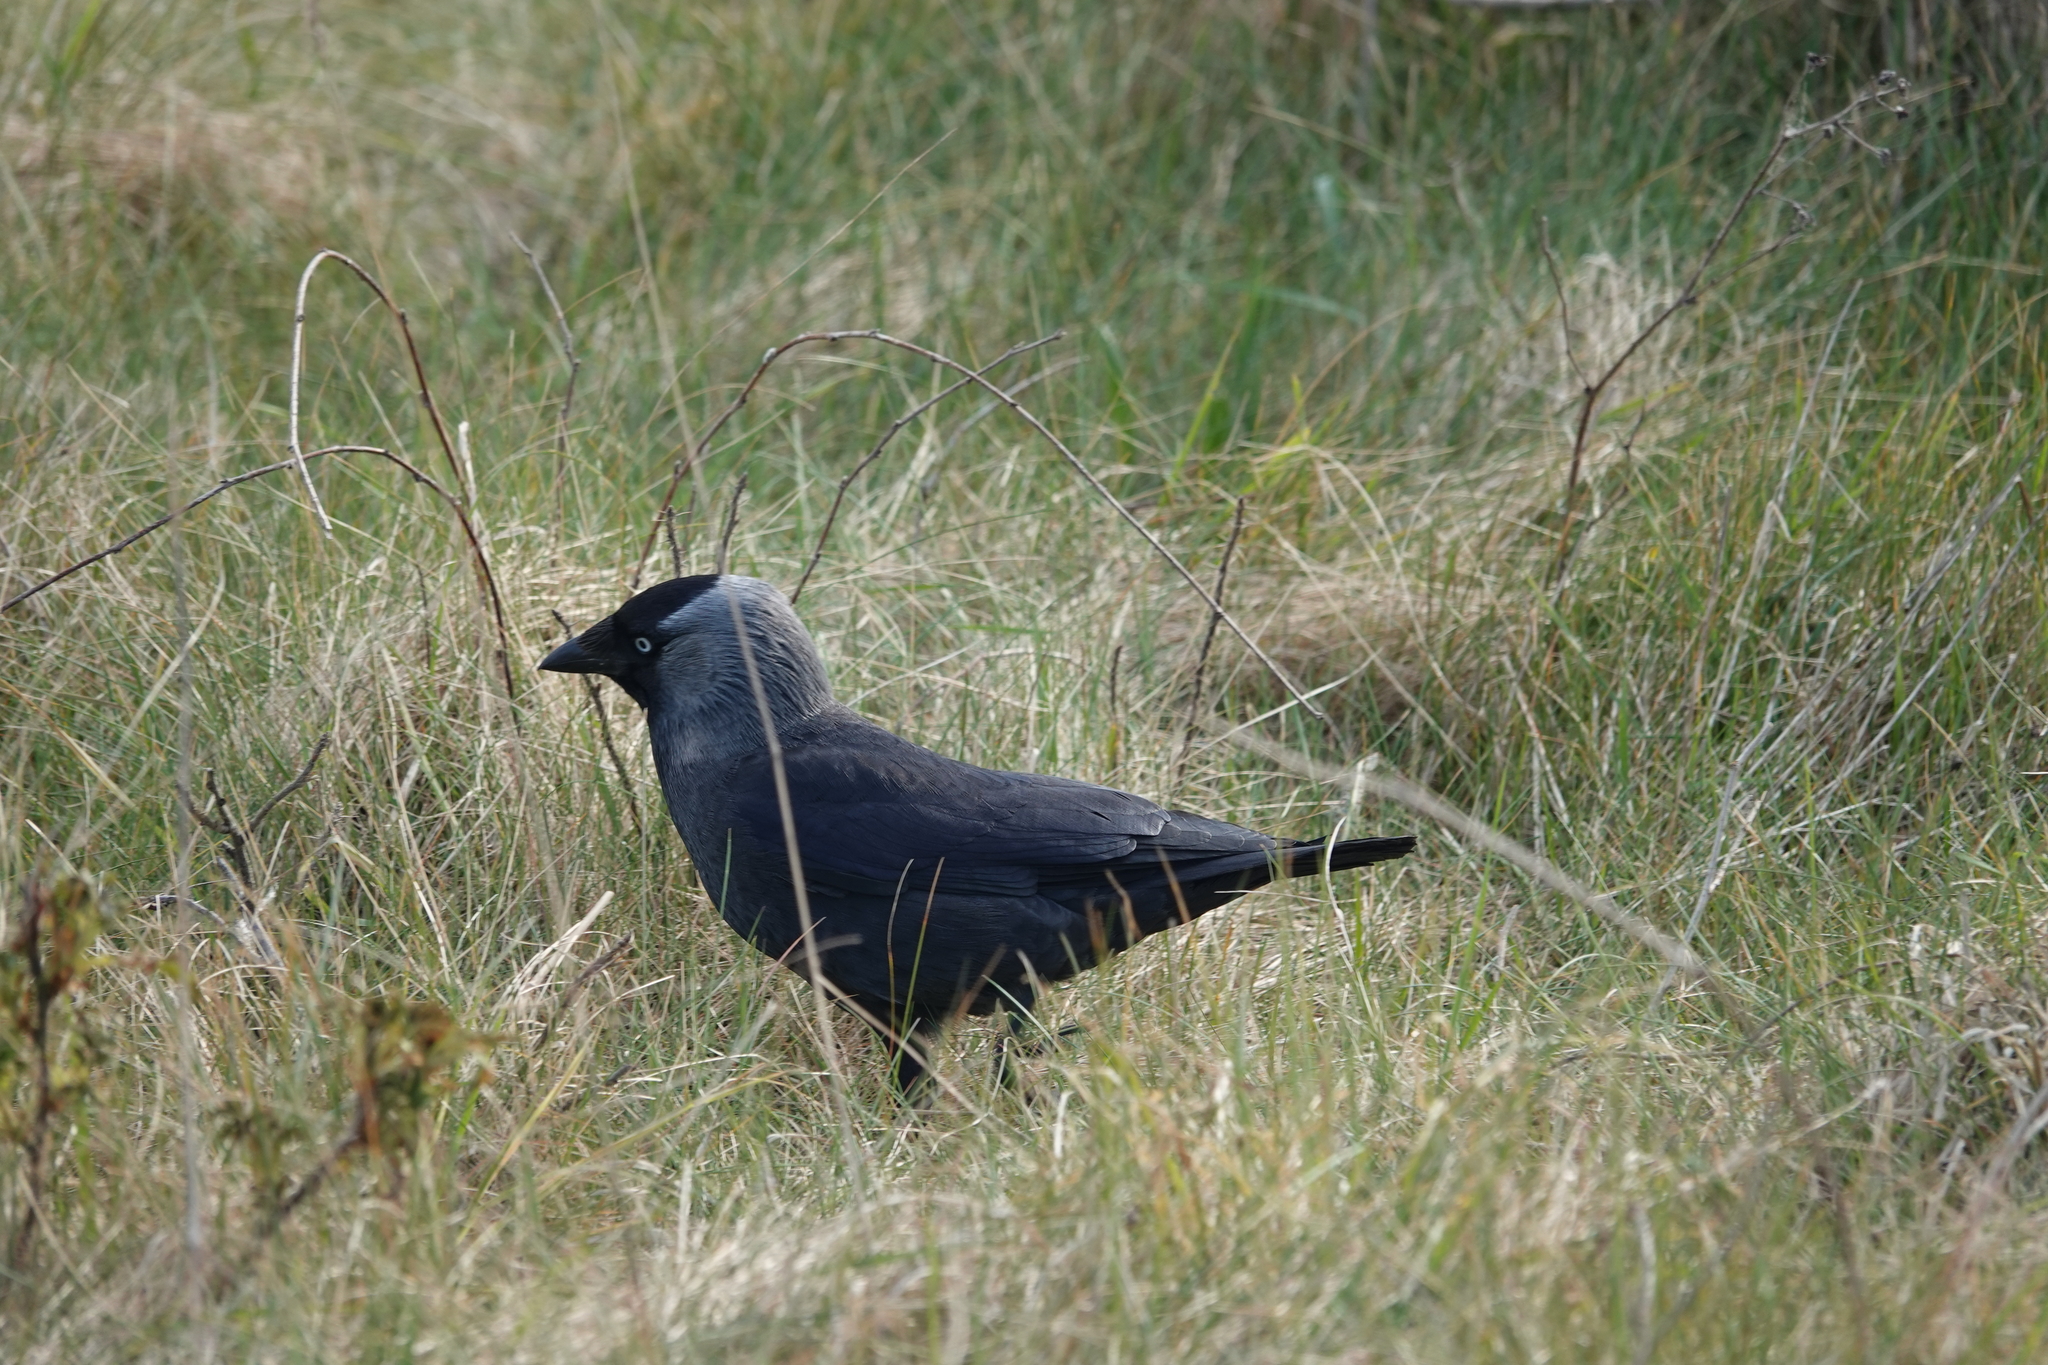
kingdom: Animalia
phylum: Chordata
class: Aves
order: Passeriformes
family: Corvidae
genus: Coloeus
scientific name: Coloeus monedula
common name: Western jackdaw
